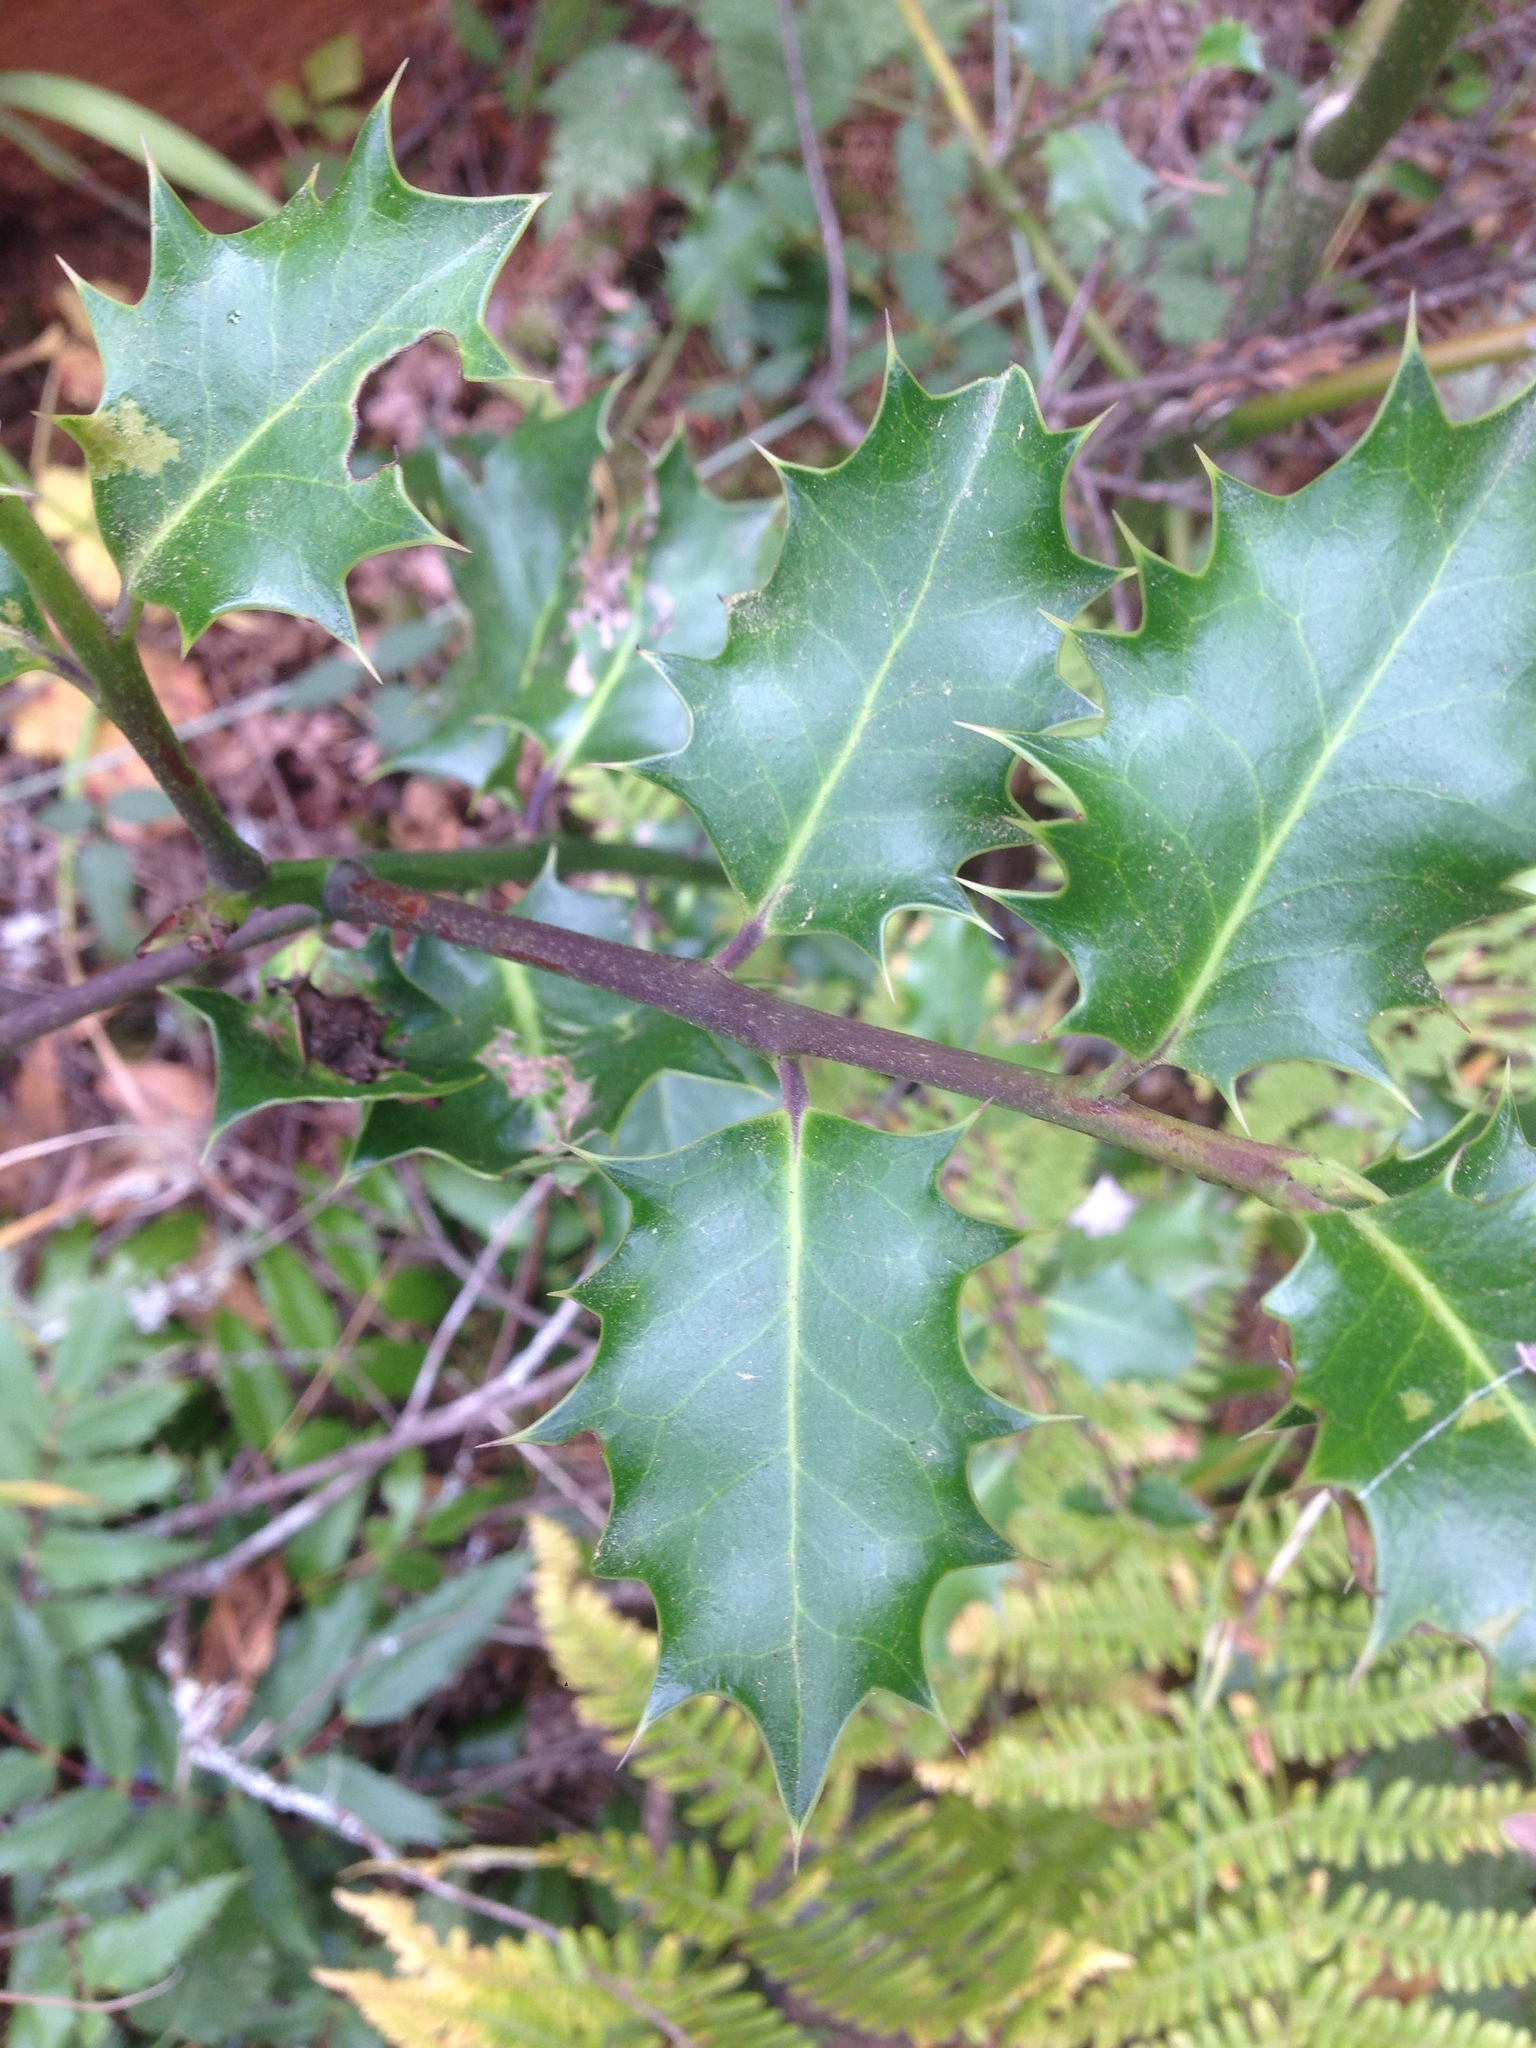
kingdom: Plantae
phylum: Tracheophyta
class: Magnoliopsida
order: Aquifoliales
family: Aquifoliaceae
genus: Ilex
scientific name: Ilex aquifolium
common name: English holly
